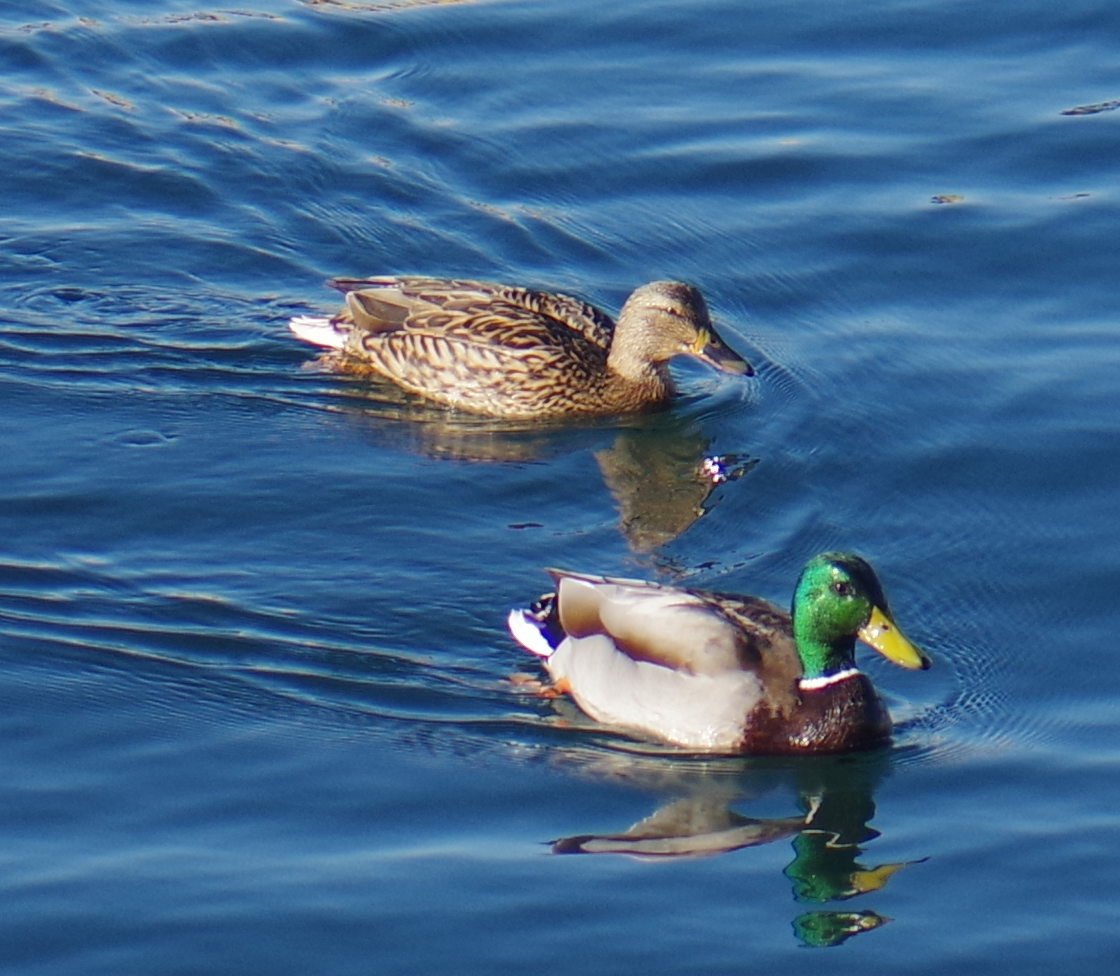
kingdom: Animalia
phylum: Chordata
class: Aves
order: Anseriformes
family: Anatidae
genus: Anas
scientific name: Anas platyrhynchos
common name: Mallard
